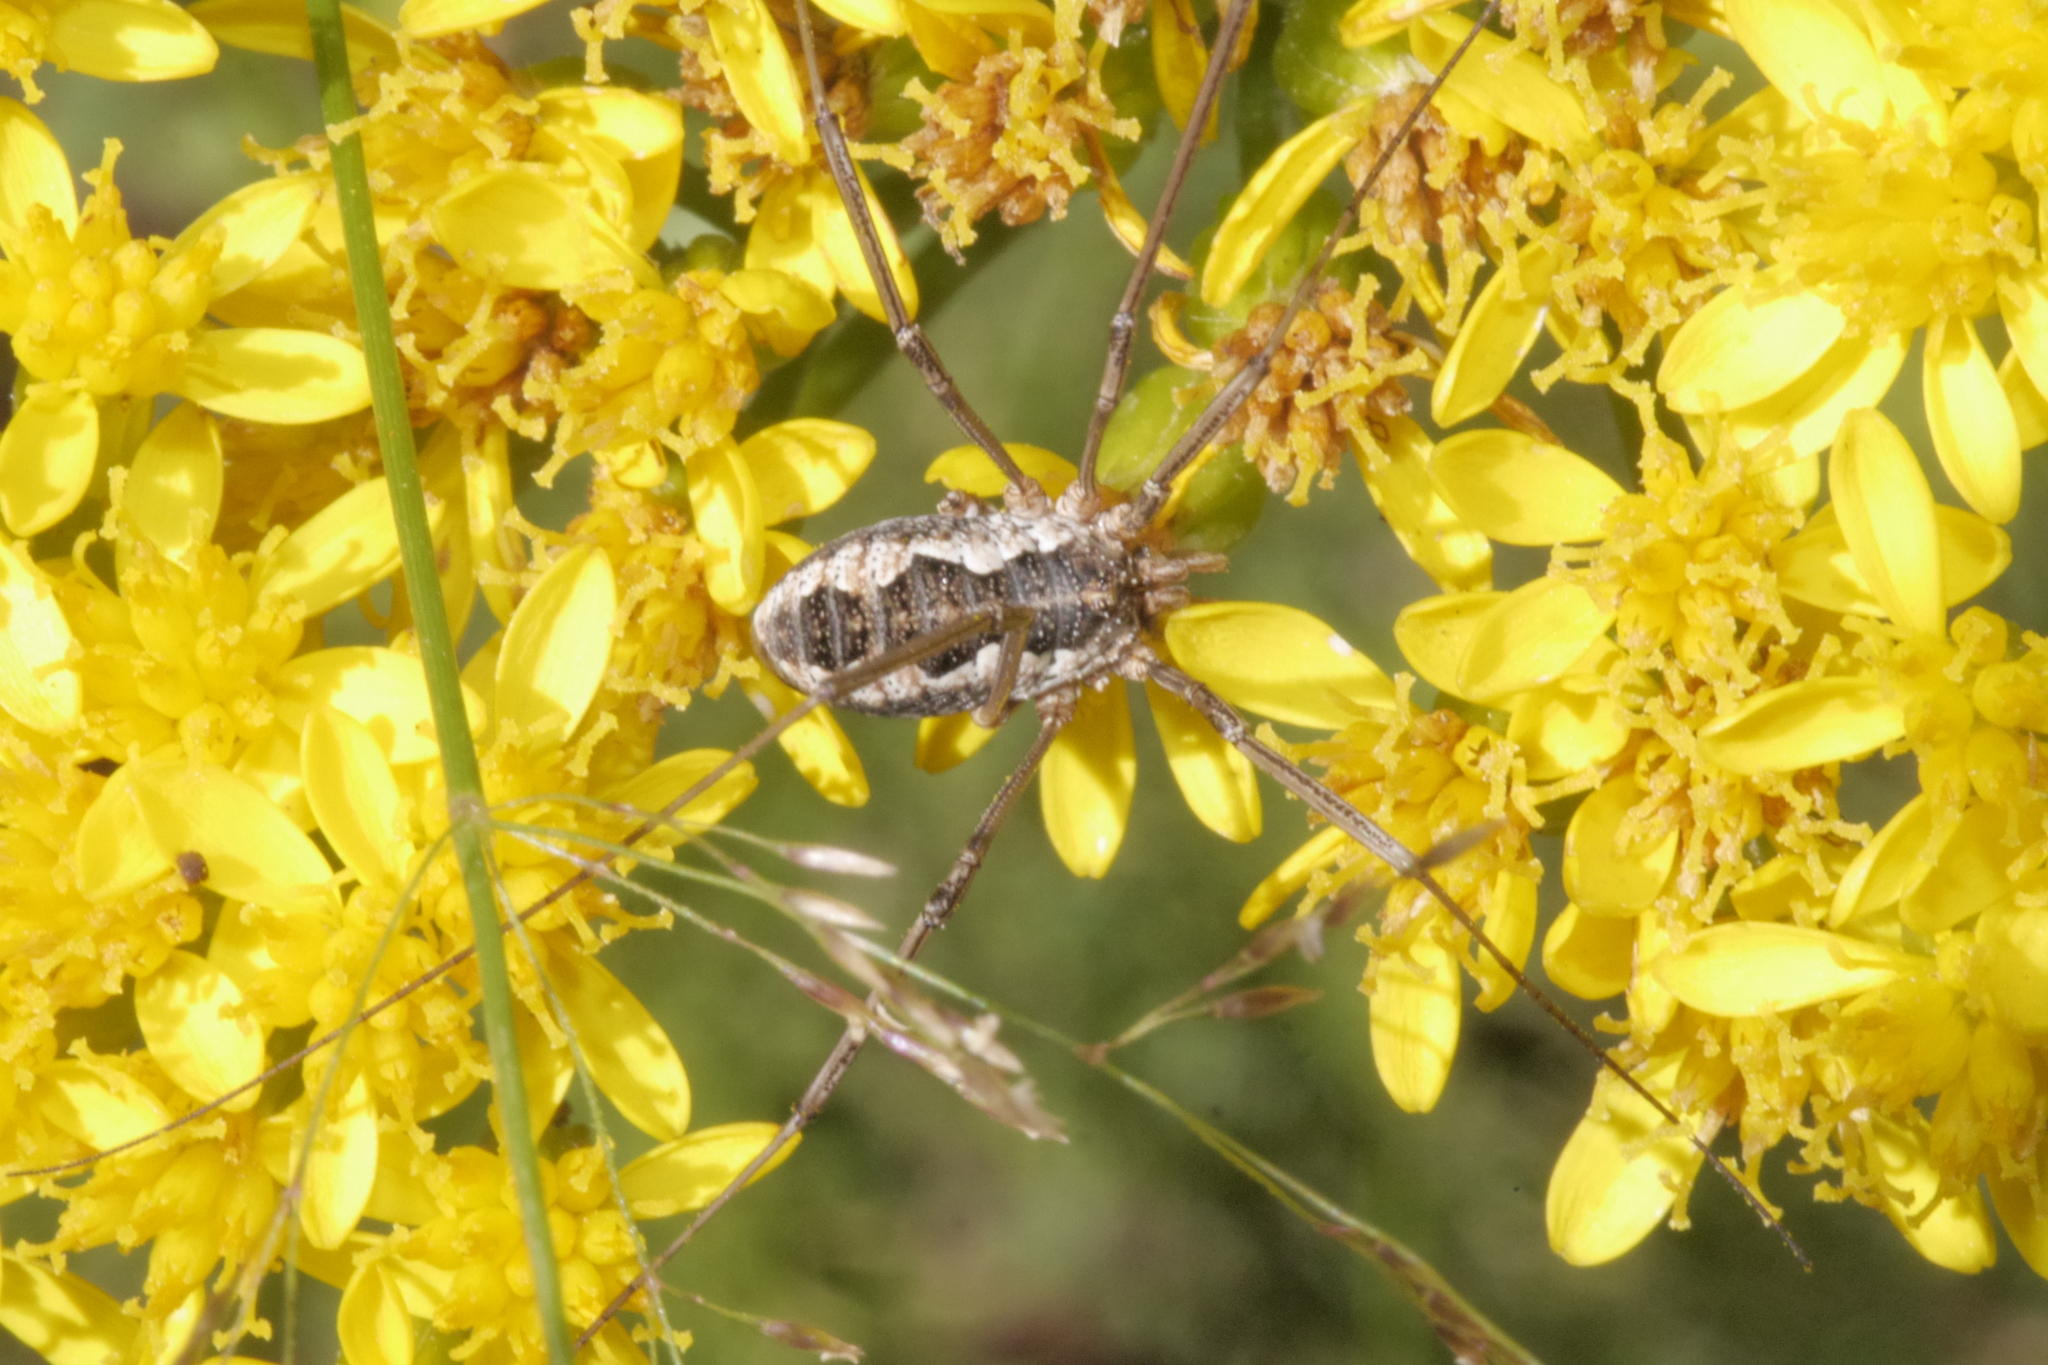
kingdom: Animalia
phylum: Arthropoda
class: Arachnida
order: Opiliones
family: Phalangiidae
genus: Phalangium
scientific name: Phalangium opilio
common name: Daddy longleg
